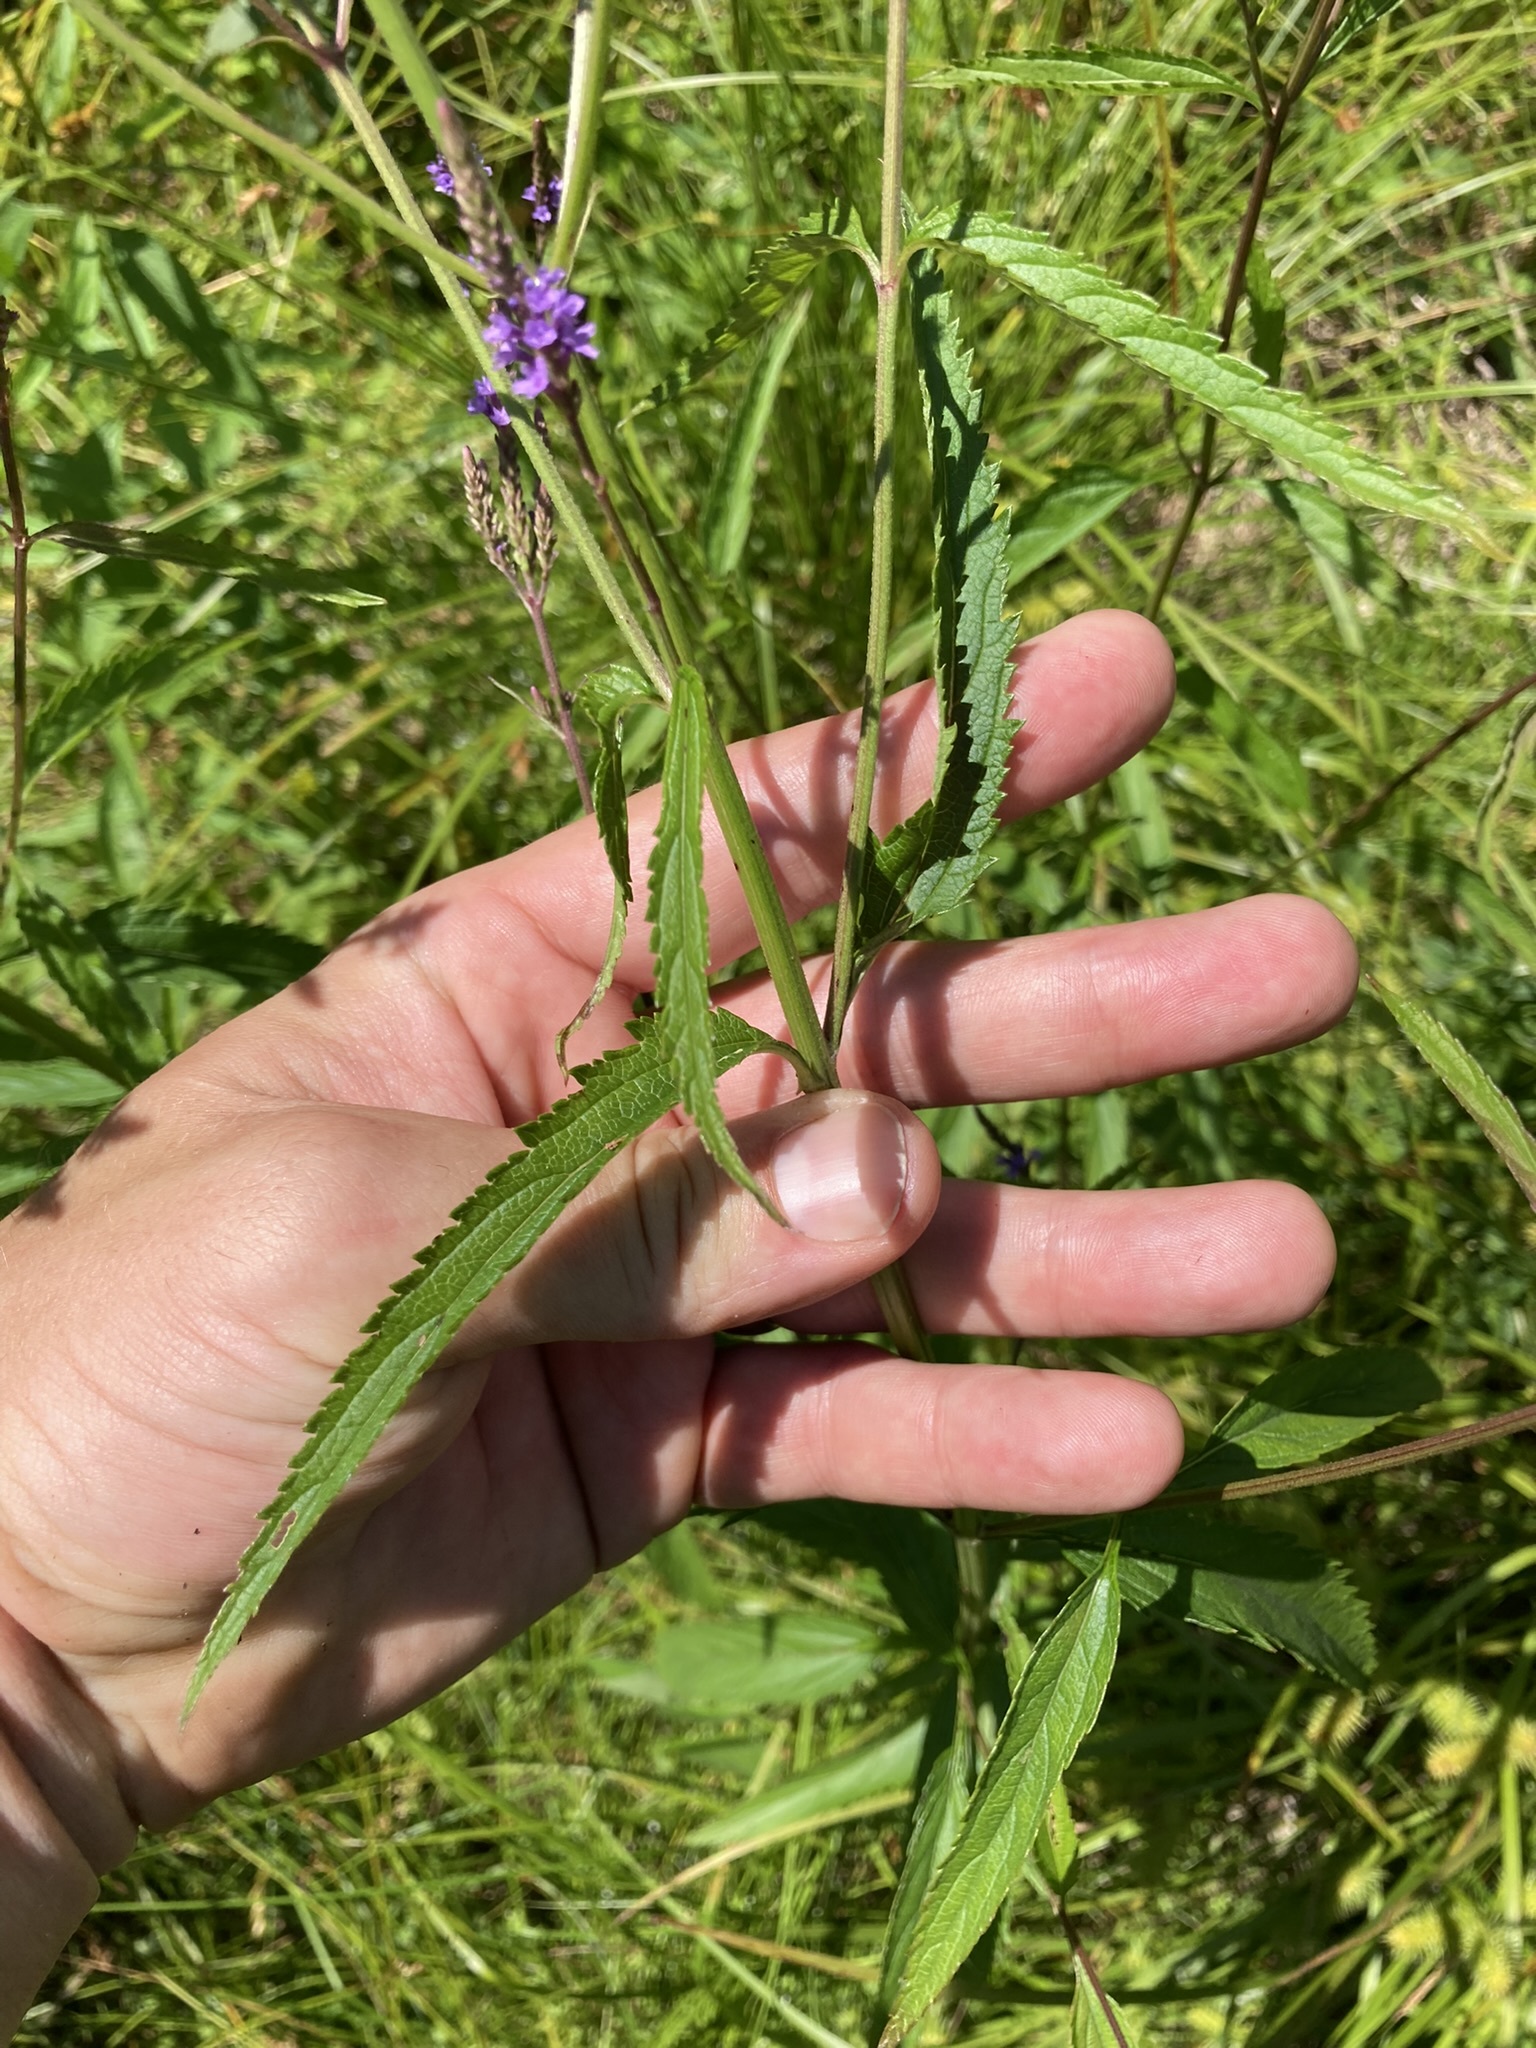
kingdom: Plantae
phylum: Tracheophyta
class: Magnoliopsida
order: Lamiales
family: Verbenaceae
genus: Verbena
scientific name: Verbena hastata
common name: American blue vervain
